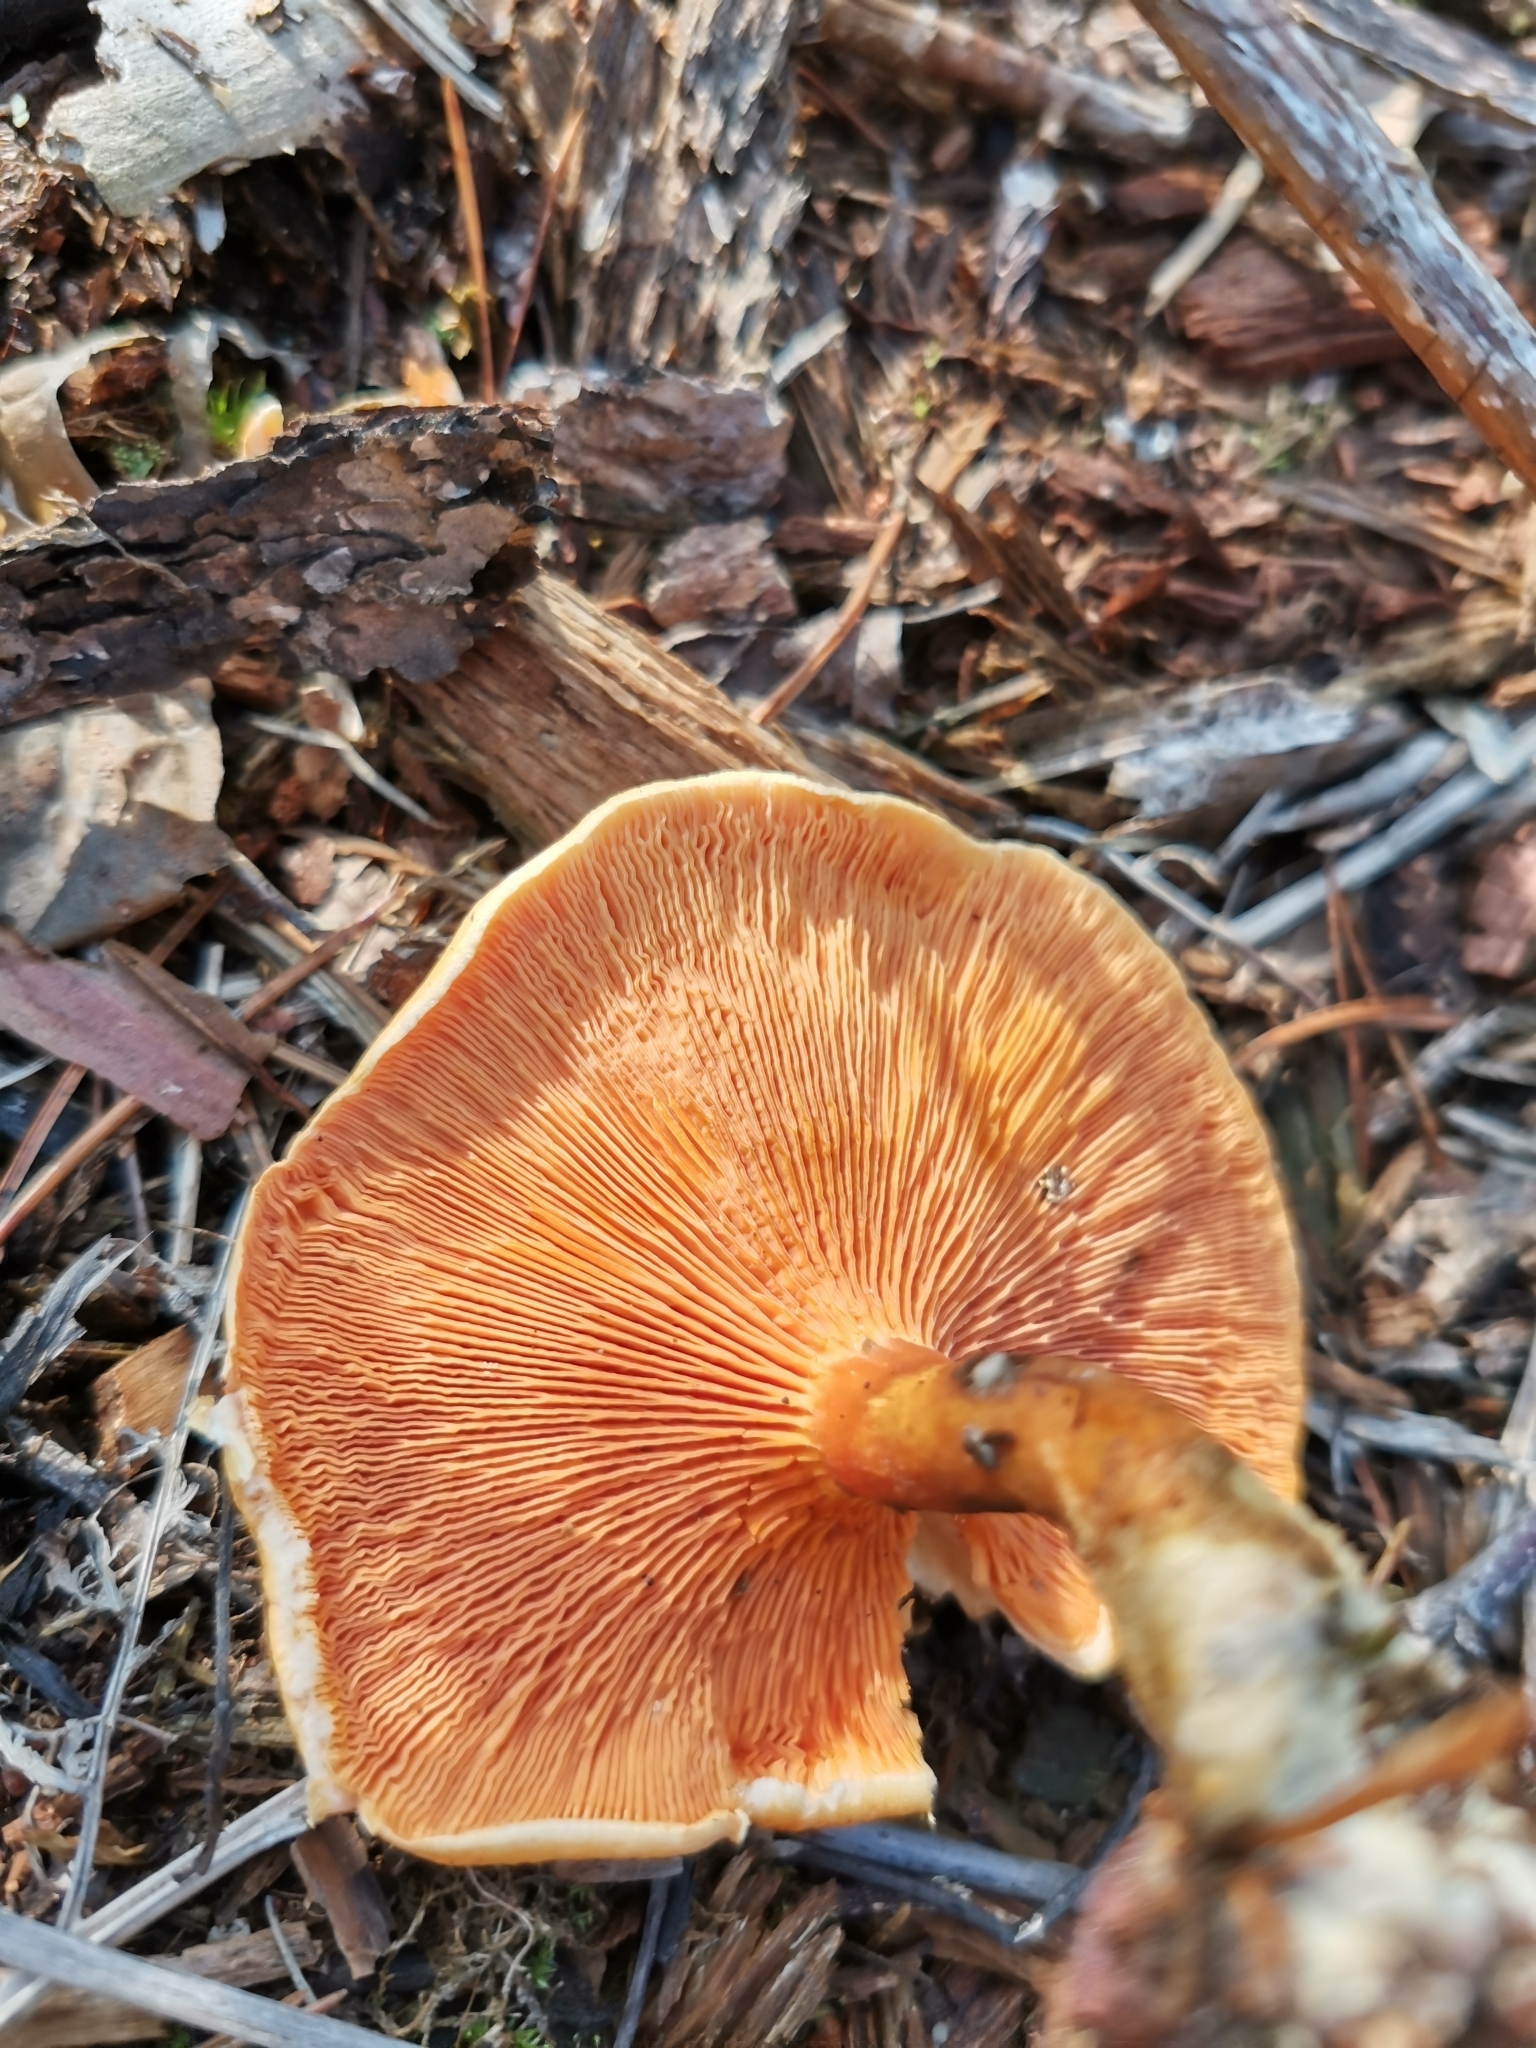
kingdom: Fungi
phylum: Basidiomycota
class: Agaricomycetes
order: Boletales
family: Hygrophoropsidaceae
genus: Hygrophoropsis
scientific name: Hygrophoropsis aurantiaca
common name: False chanterelle
